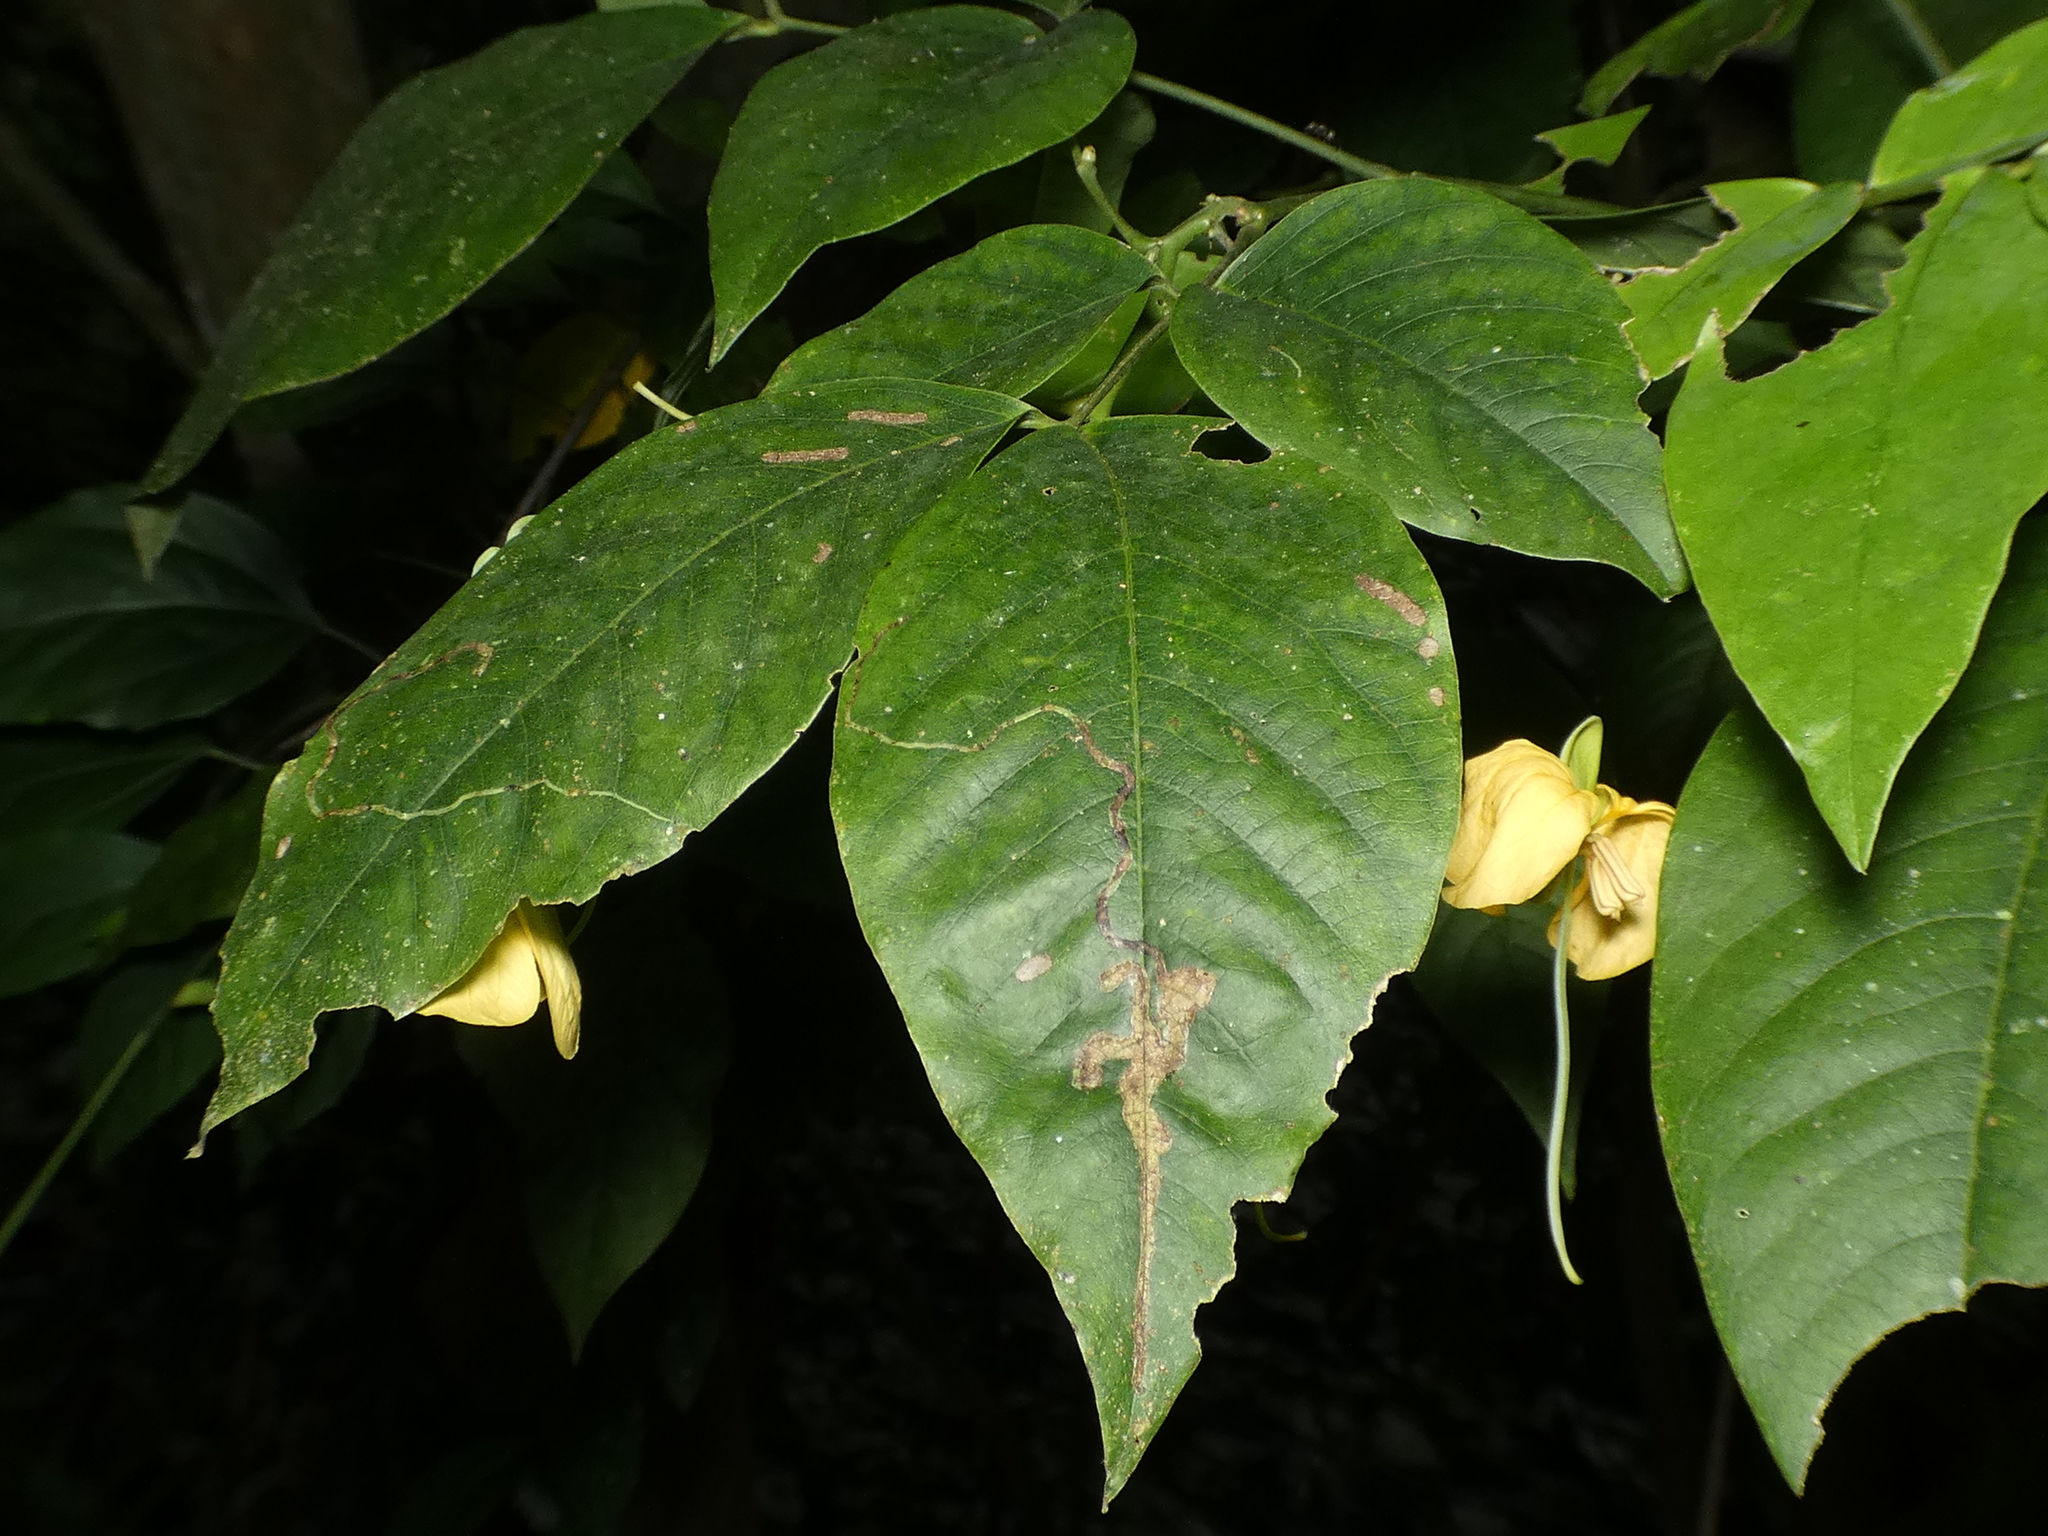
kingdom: Plantae
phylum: Tracheophyta
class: Magnoliopsida
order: Fabales
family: Fabaceae
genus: Senna
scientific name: Senna georgica
